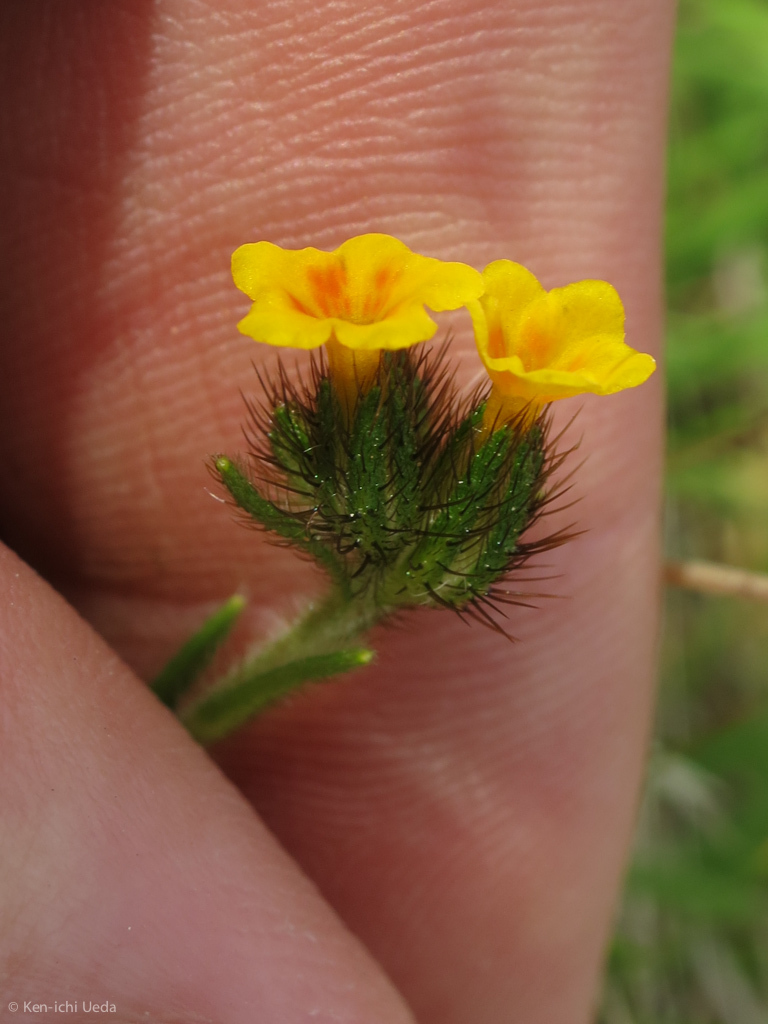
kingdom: Plantae
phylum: Tracheophyta
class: Magnoliopsida
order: Boraginales
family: Boraginaceae
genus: Amsinckia
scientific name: Amsinckia
